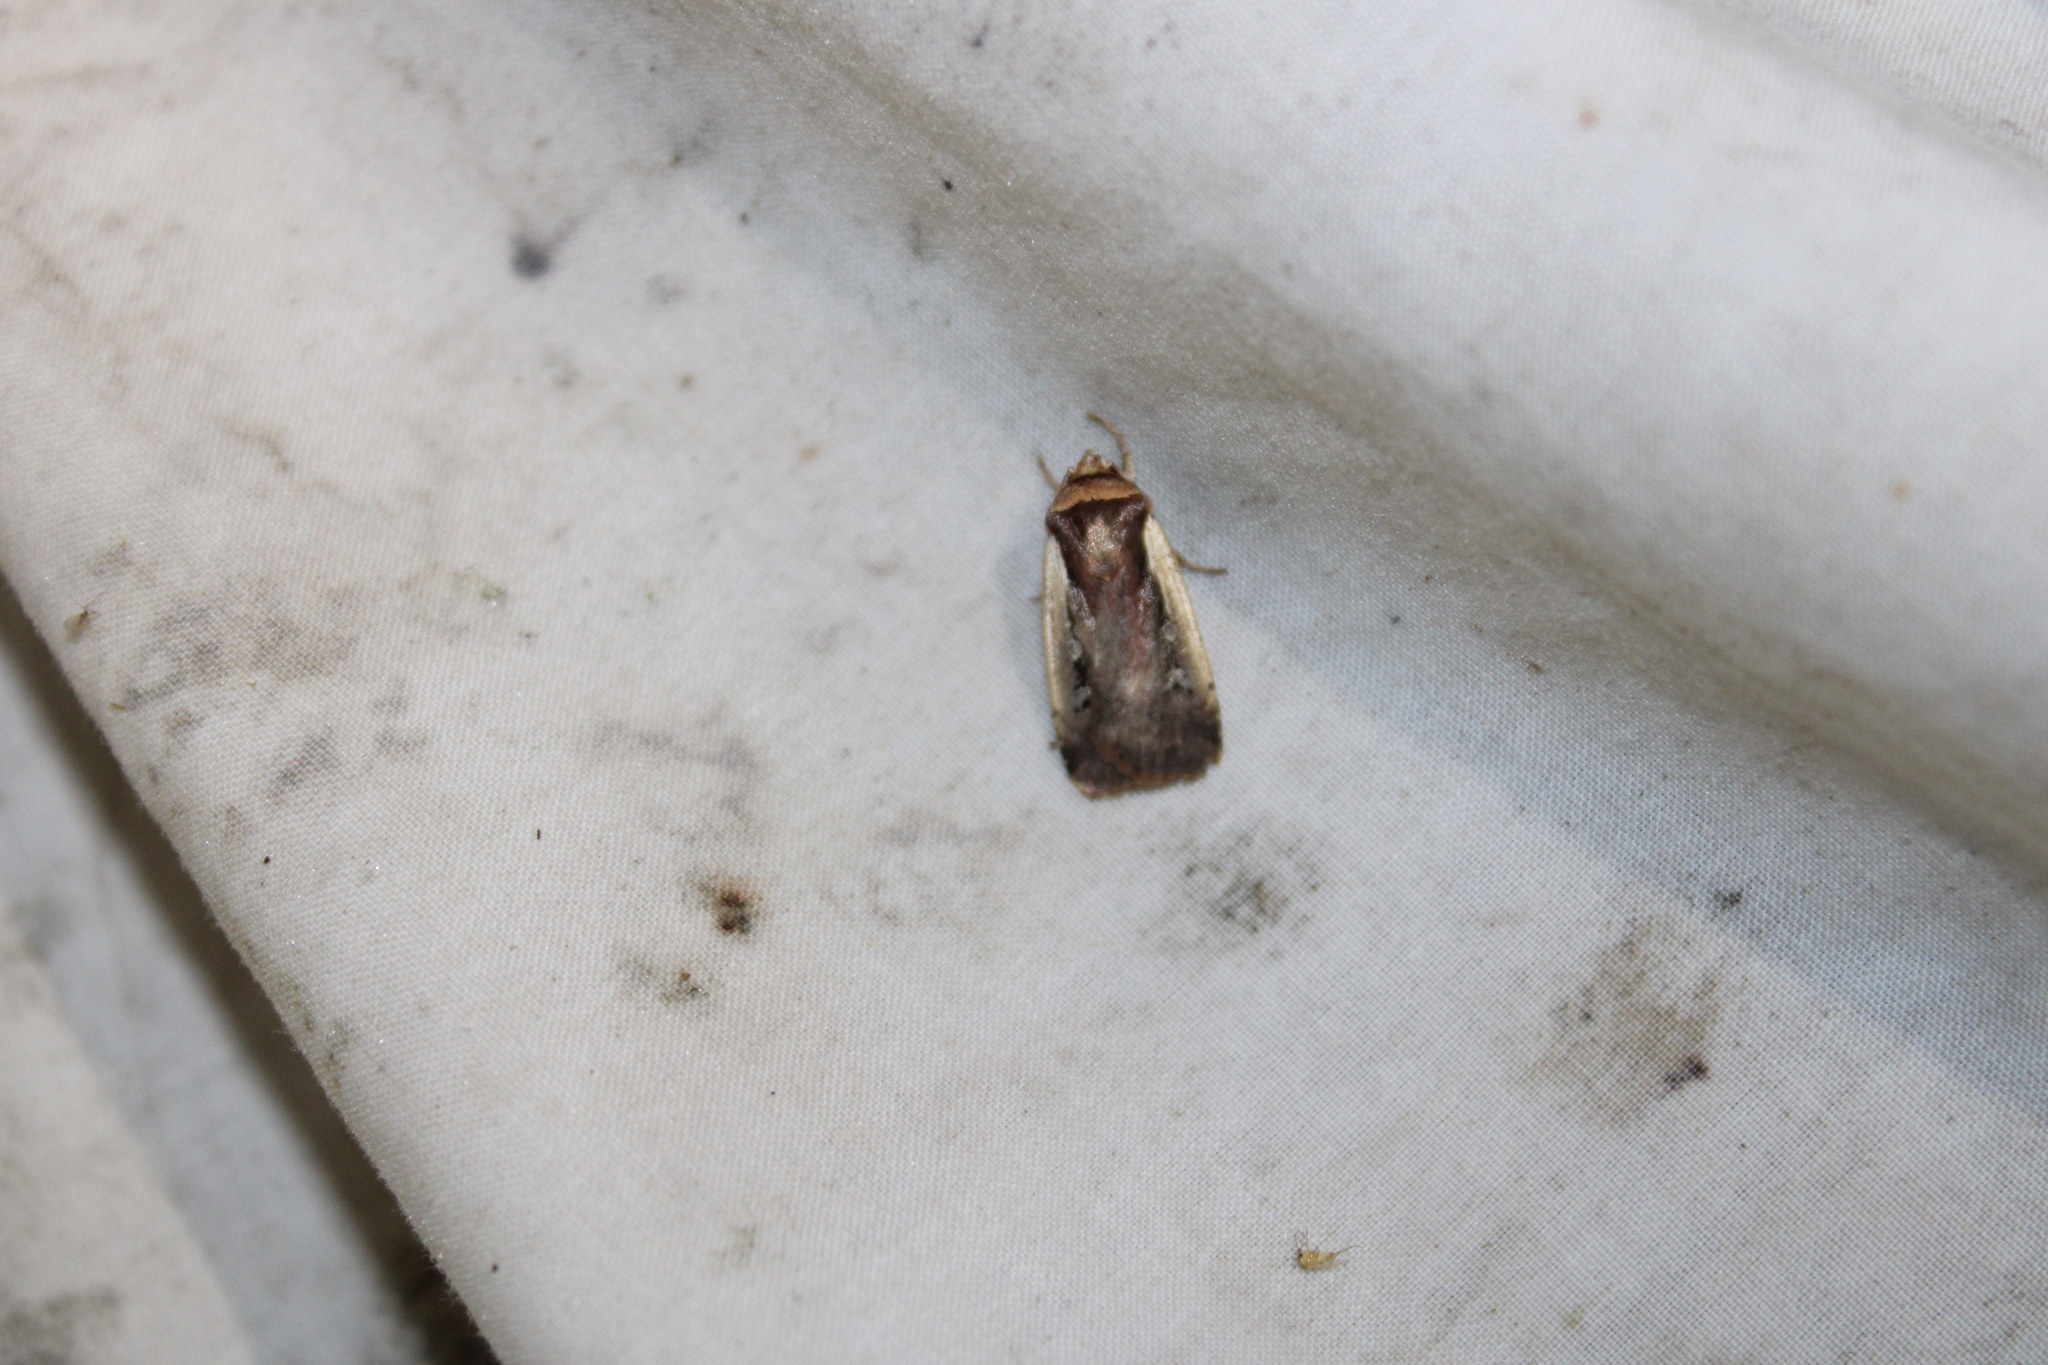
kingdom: Animalia
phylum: Arthropoda
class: Insecta
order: Lepidoptera
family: Noctuidae
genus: Ochropleura
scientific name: Ochropleura implecta
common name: Flame-shouldered dart
